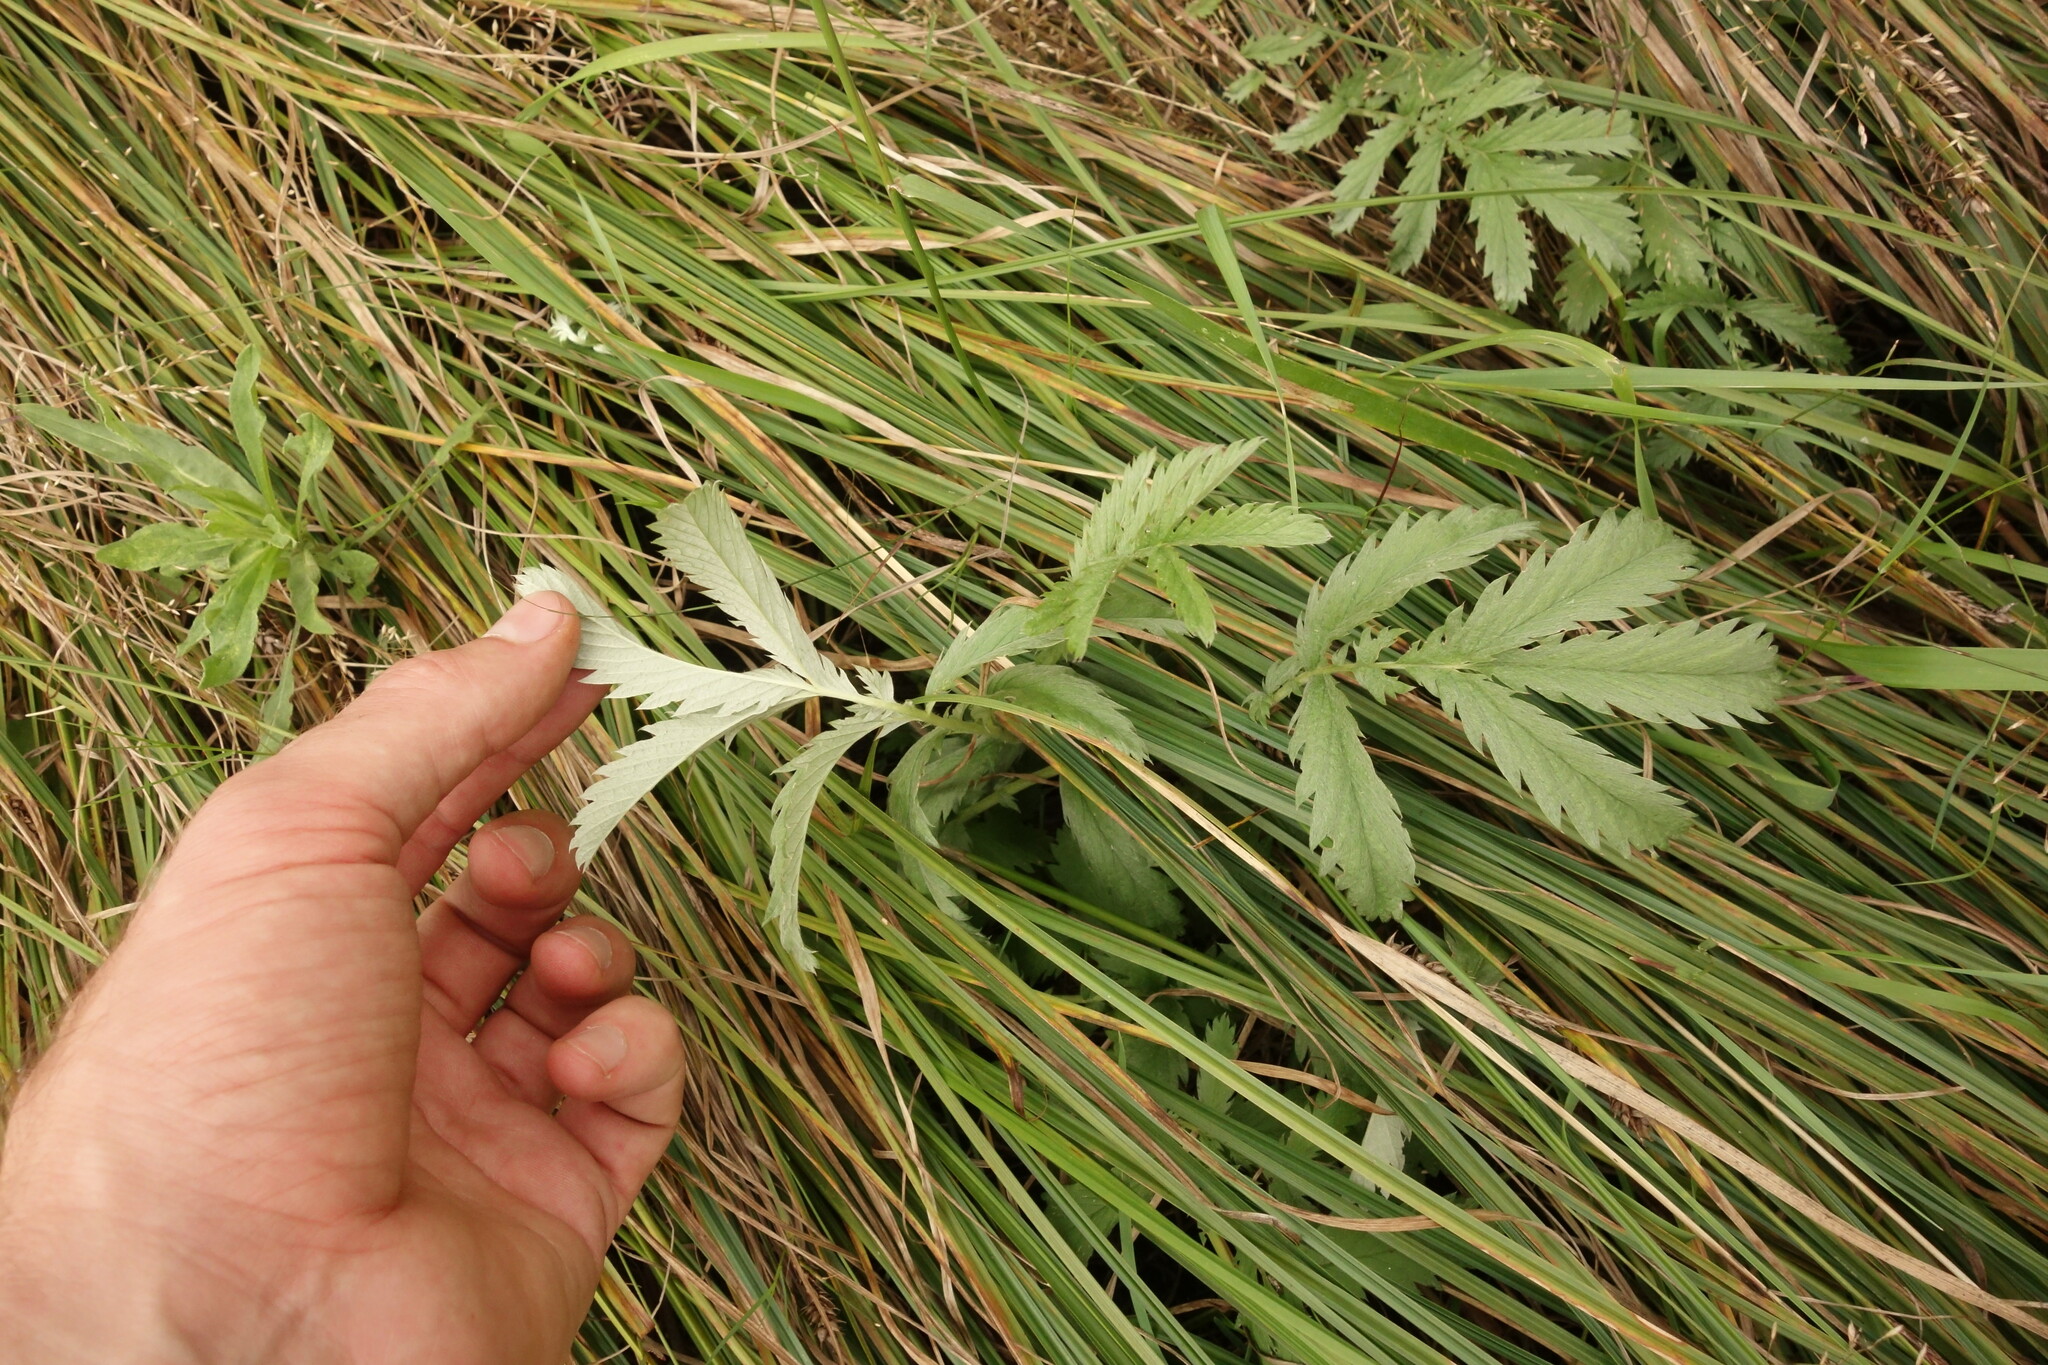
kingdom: Plantae
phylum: Tracheophyta
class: Magnoliopsida
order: Rosales
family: Rosaceae
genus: Argentina
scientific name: Argentina anserina
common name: Common silverweed
